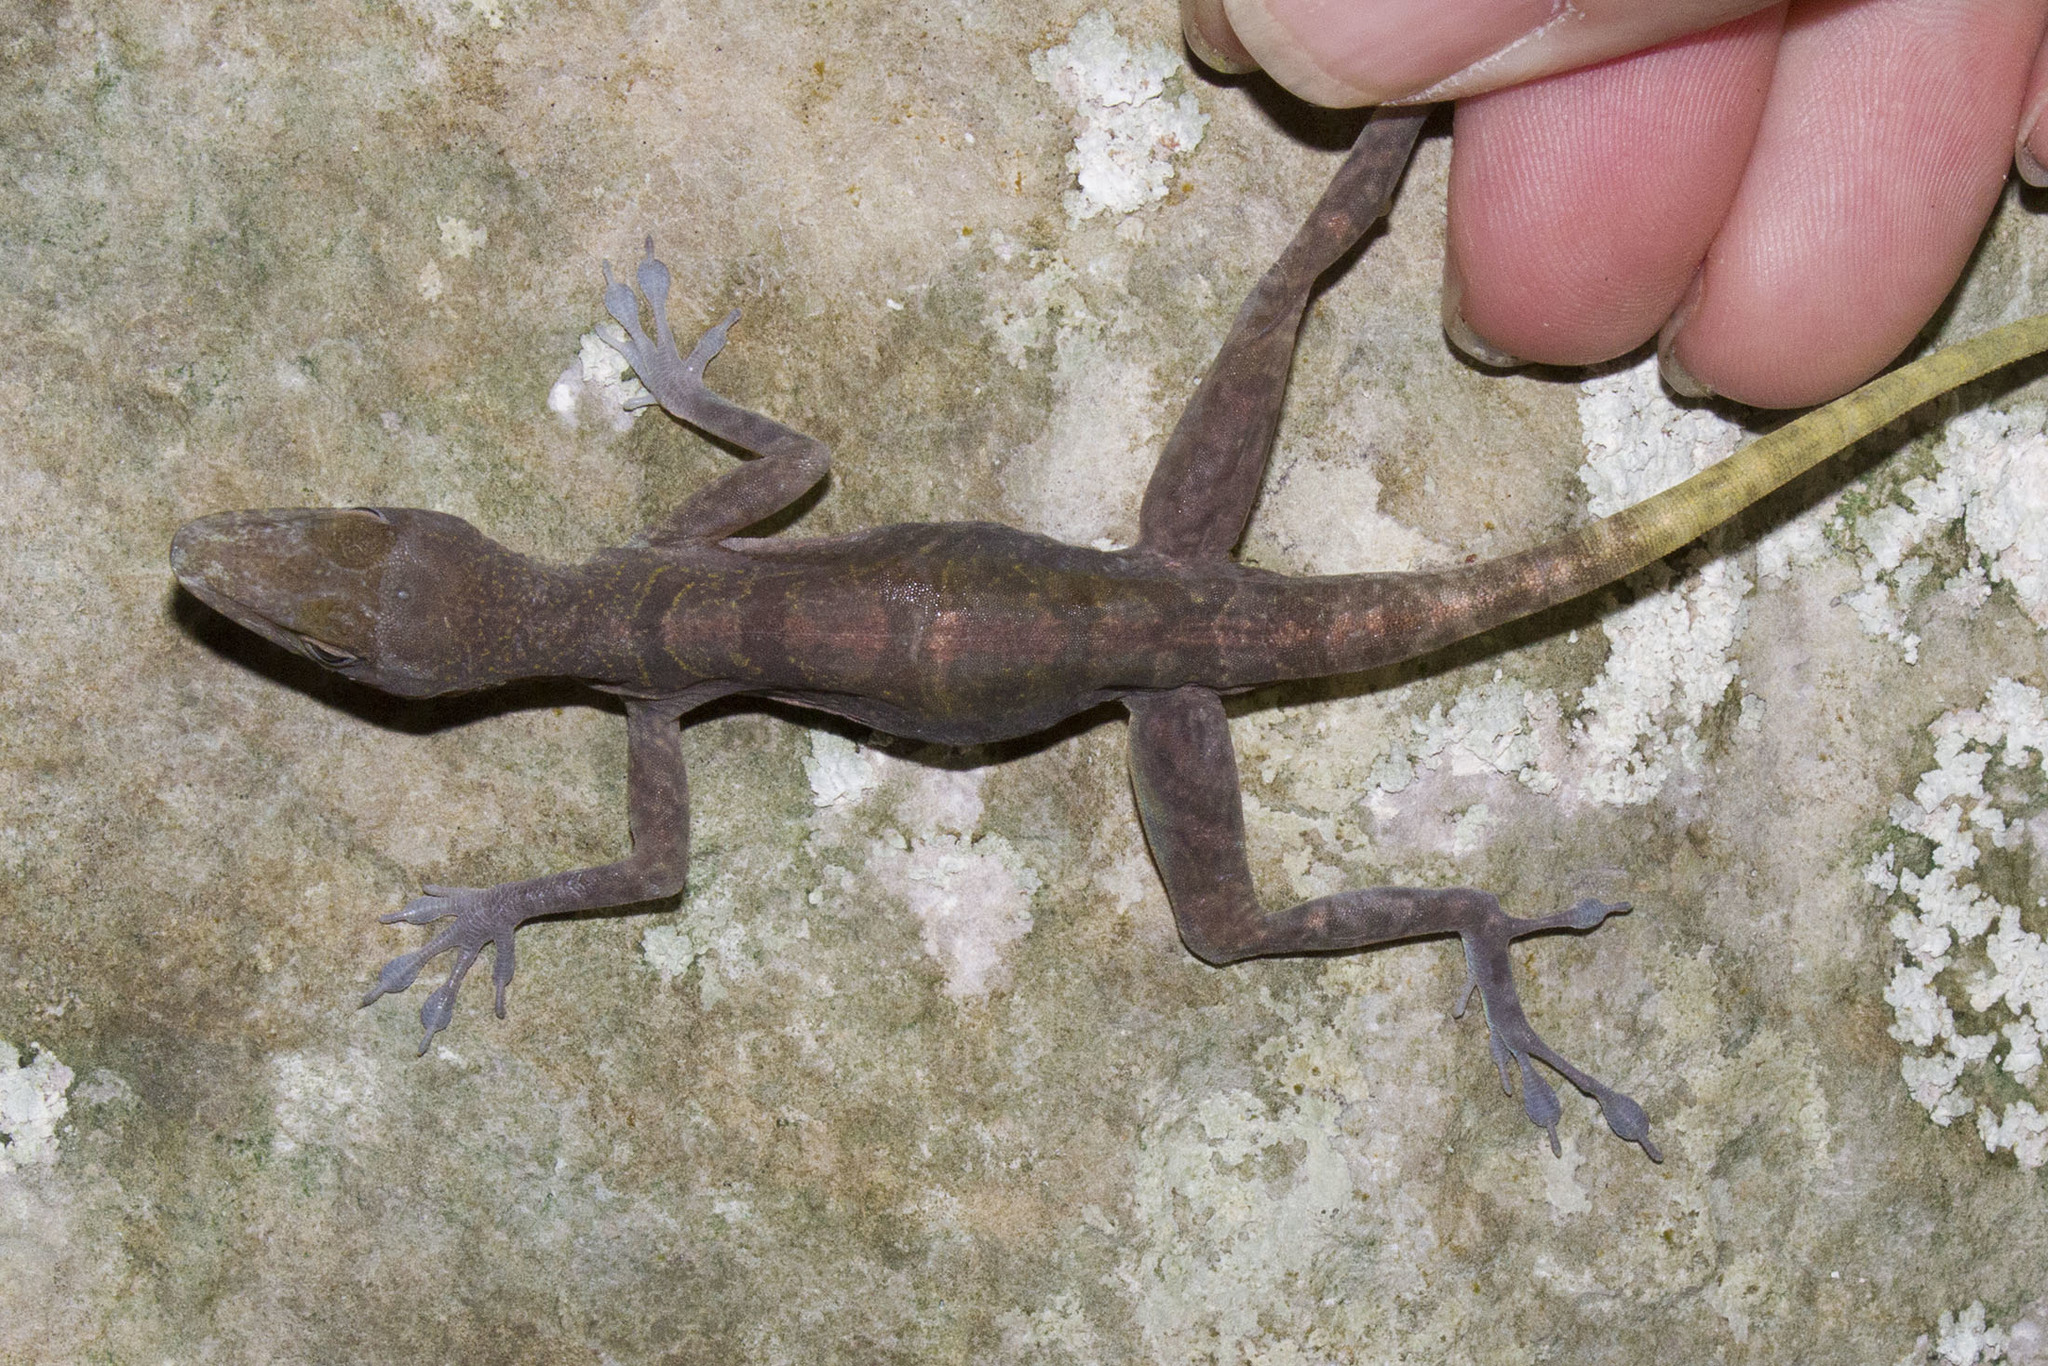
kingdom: Animalia
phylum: Chordata
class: Squamata
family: Dactyloidae
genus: Anolis
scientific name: Anolis bartschi
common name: West cuban anole
